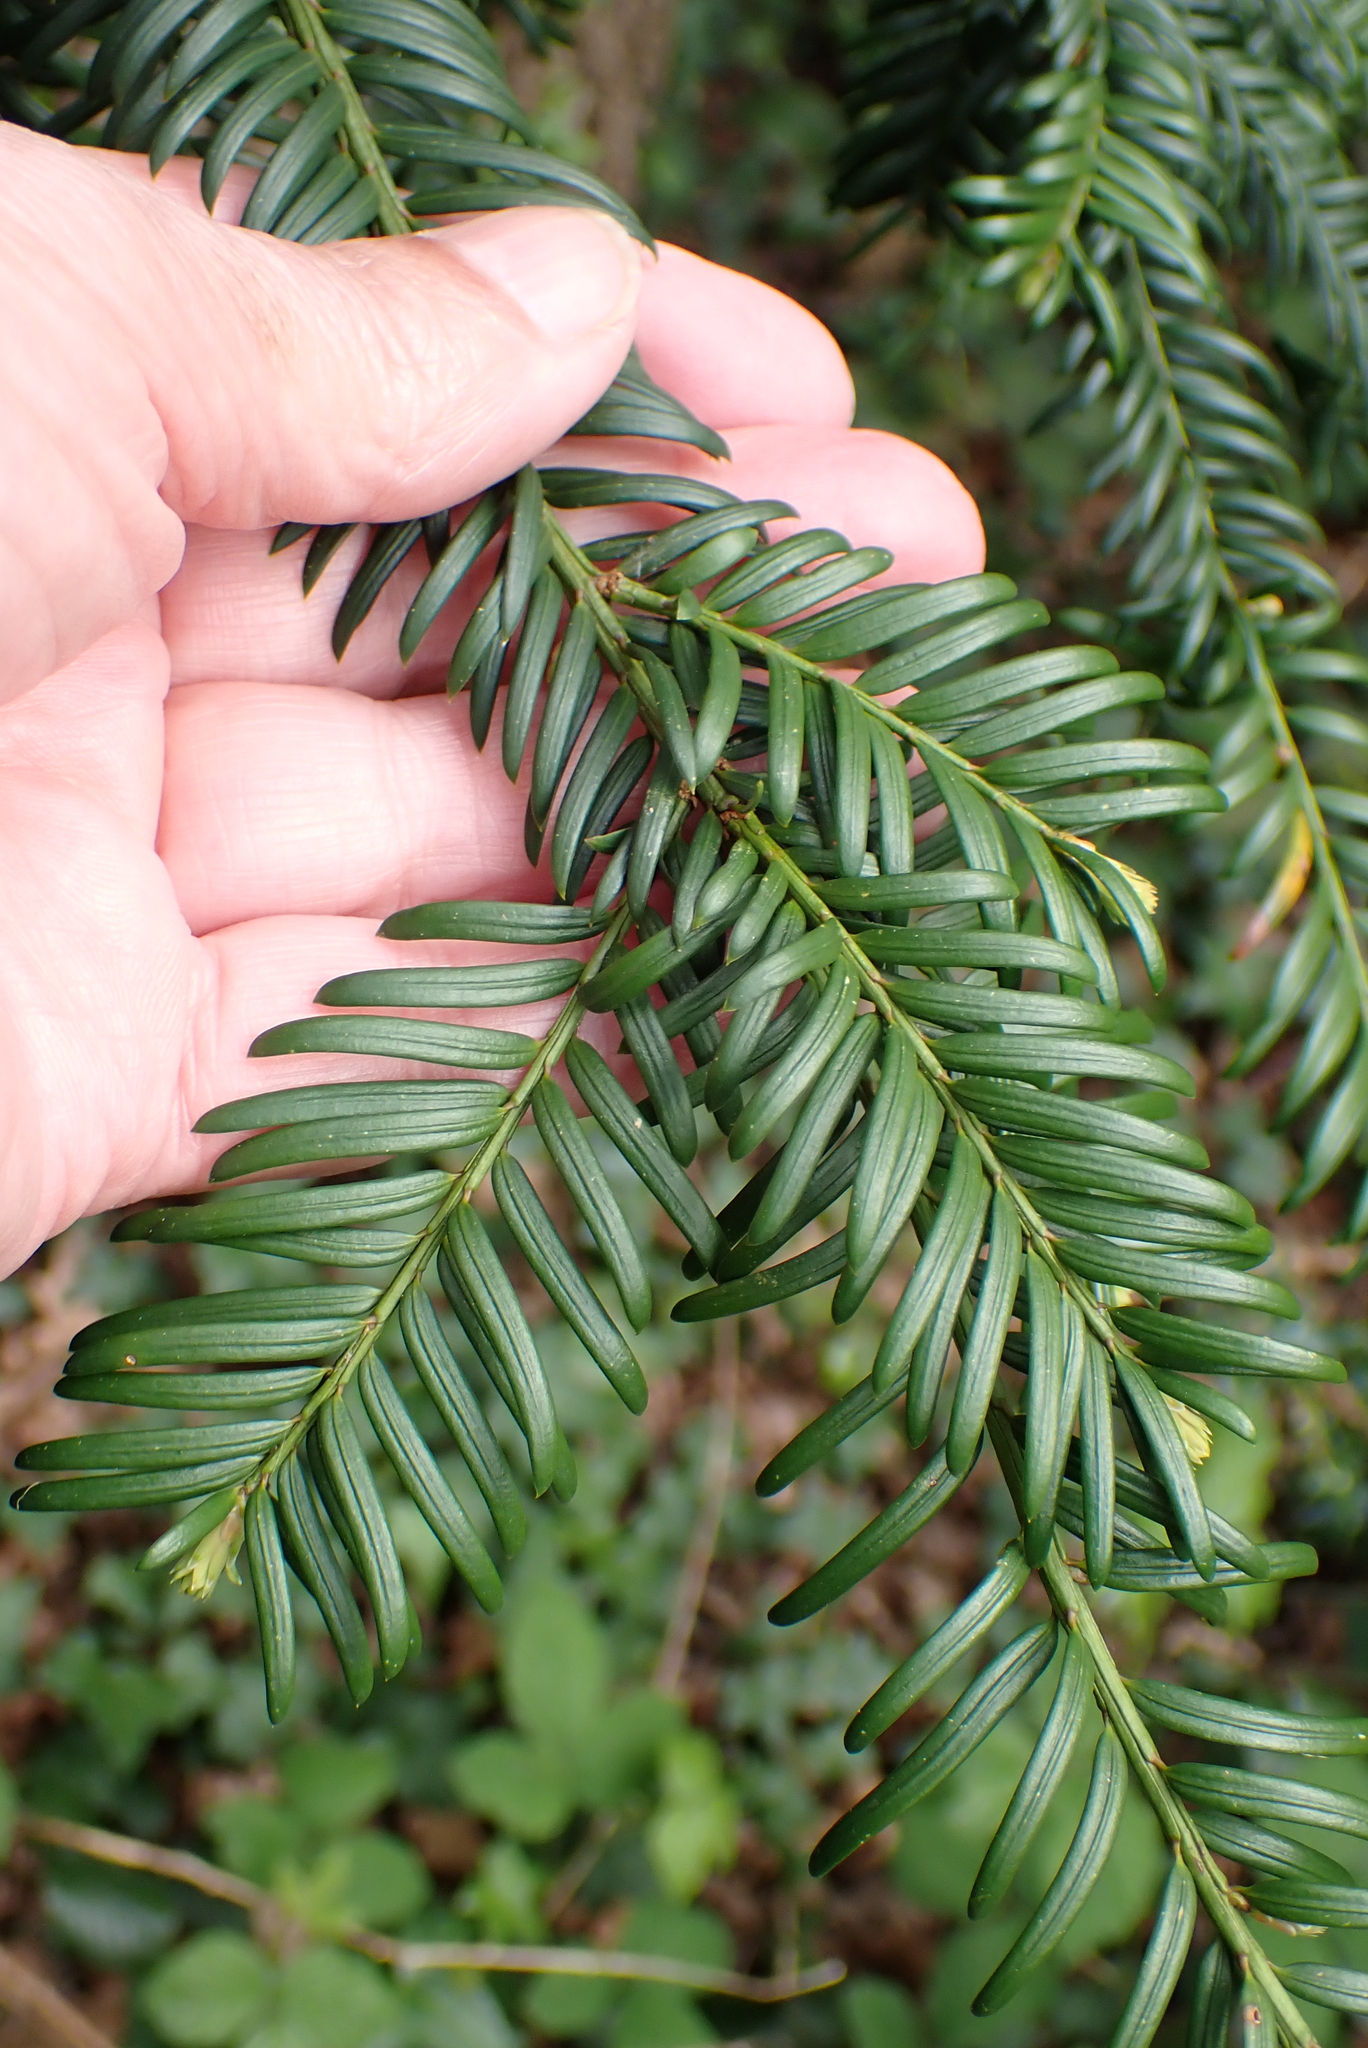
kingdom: Plantae
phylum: Tracheophyta
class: Pinopsida
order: Pinales
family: Taxaceae
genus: Taxus
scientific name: Taxus baccata
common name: Yew
